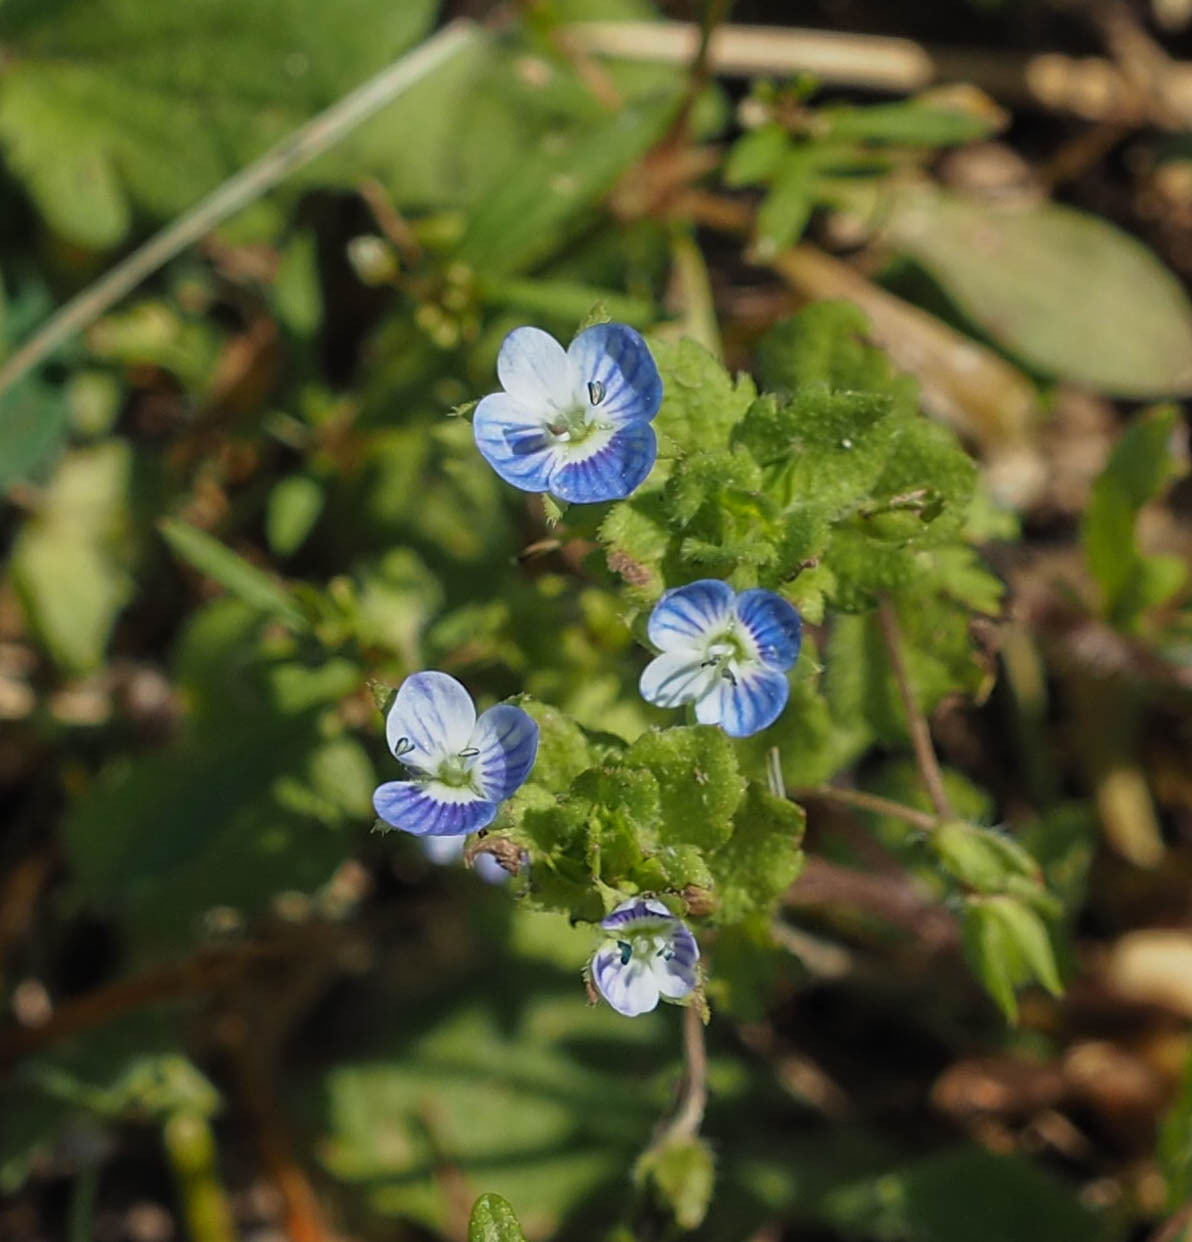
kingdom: Plantae
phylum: Tracheophyta
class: Magnoliopsida
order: Lamiales
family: Plantaginaceae
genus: Veronica
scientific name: Veronica persica
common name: Common field-speedwell
